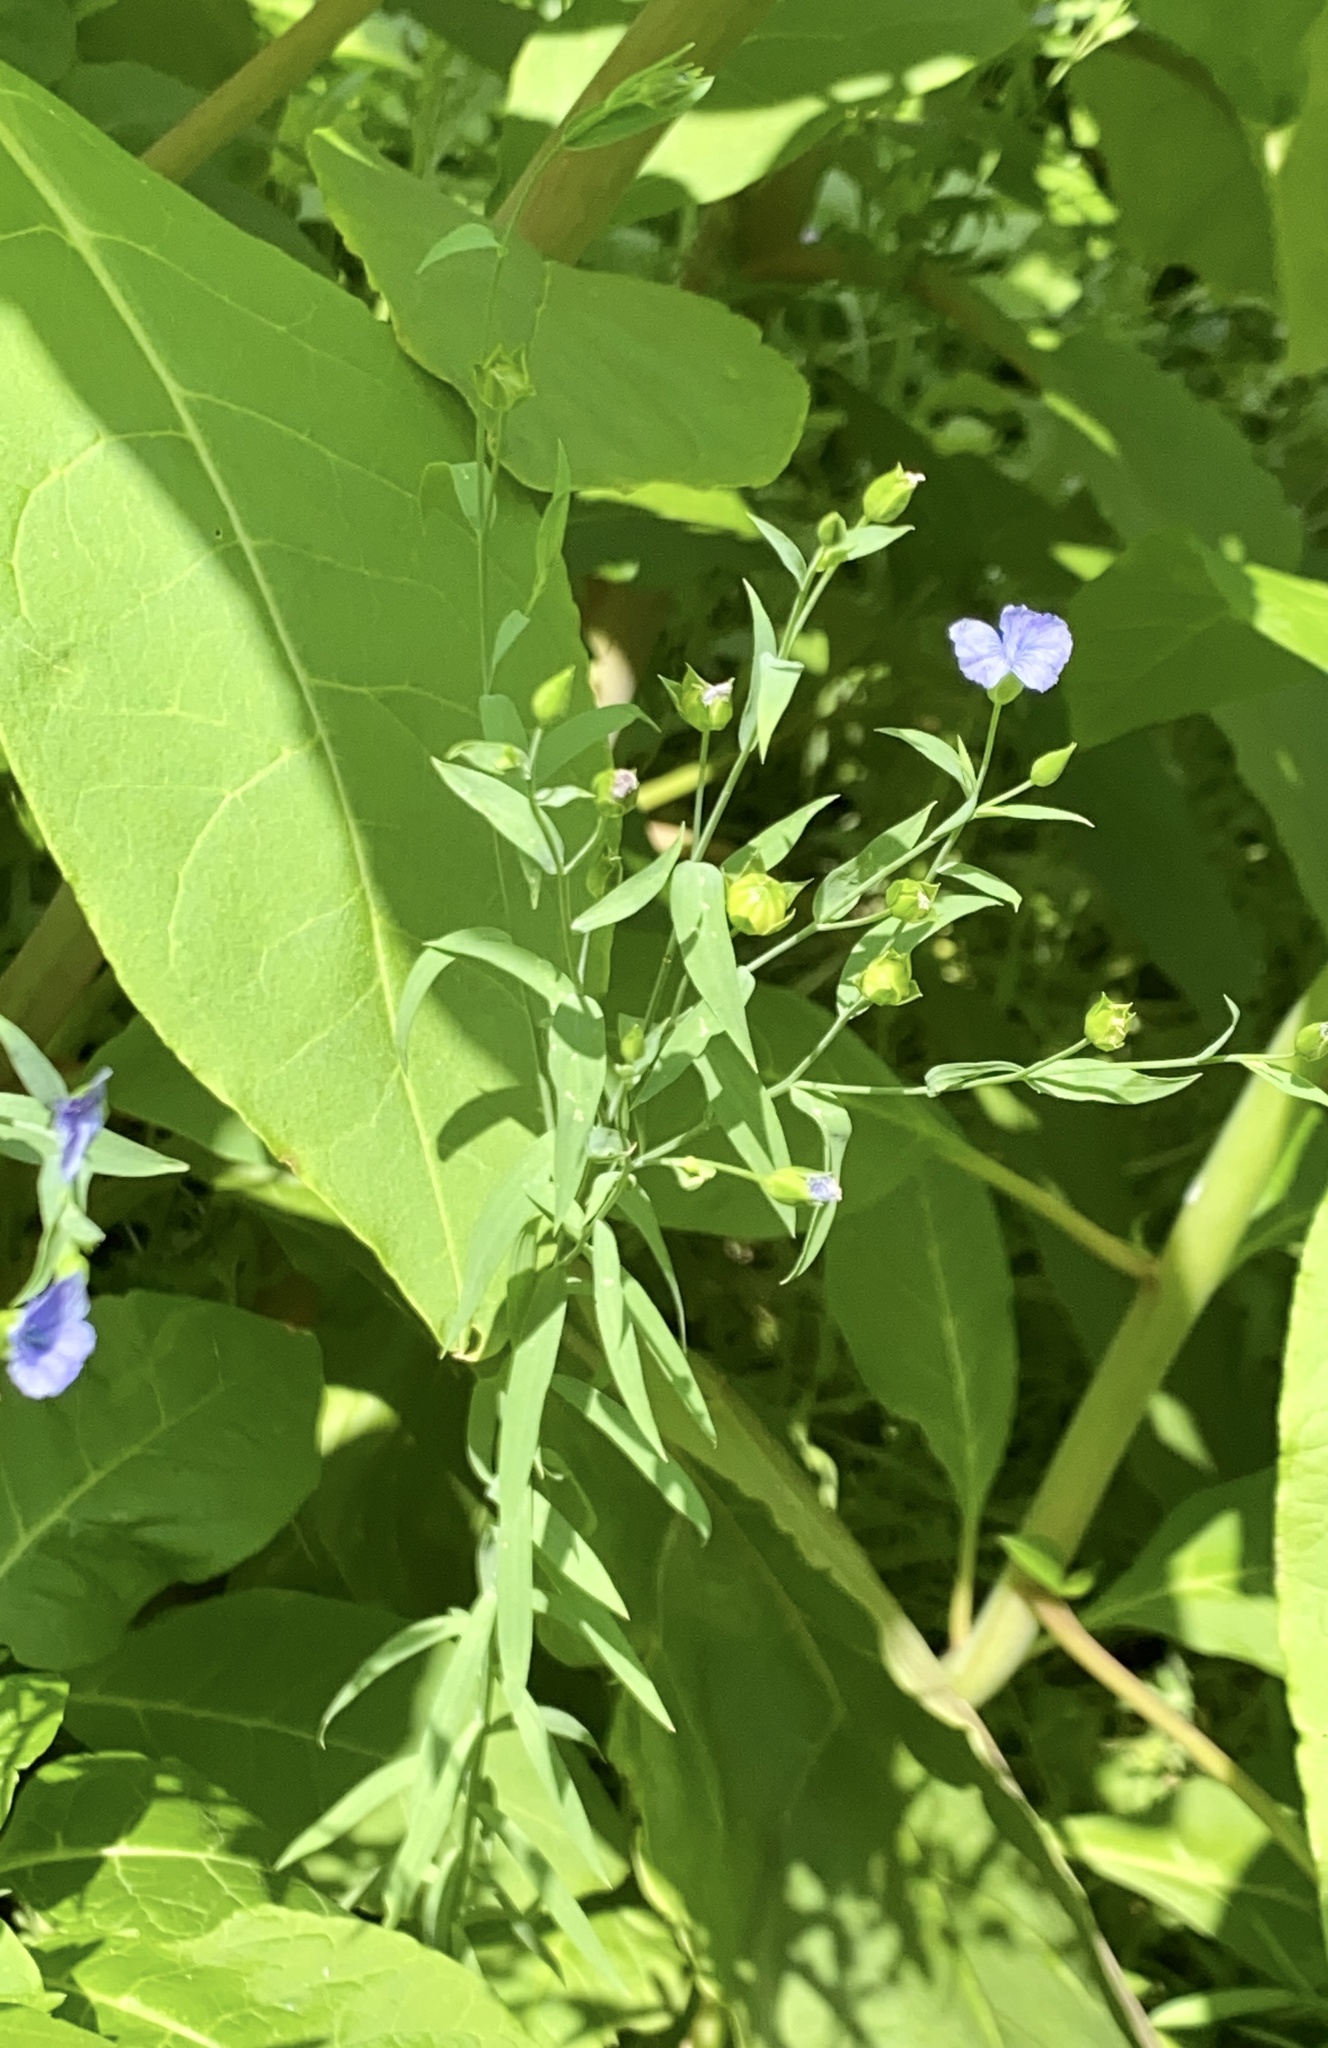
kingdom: Plantae
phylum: Tracheophyta
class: Magnoliopsida
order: Malpighiales
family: Linaceae
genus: Linum
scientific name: Linum usitatissimum
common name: Flax
